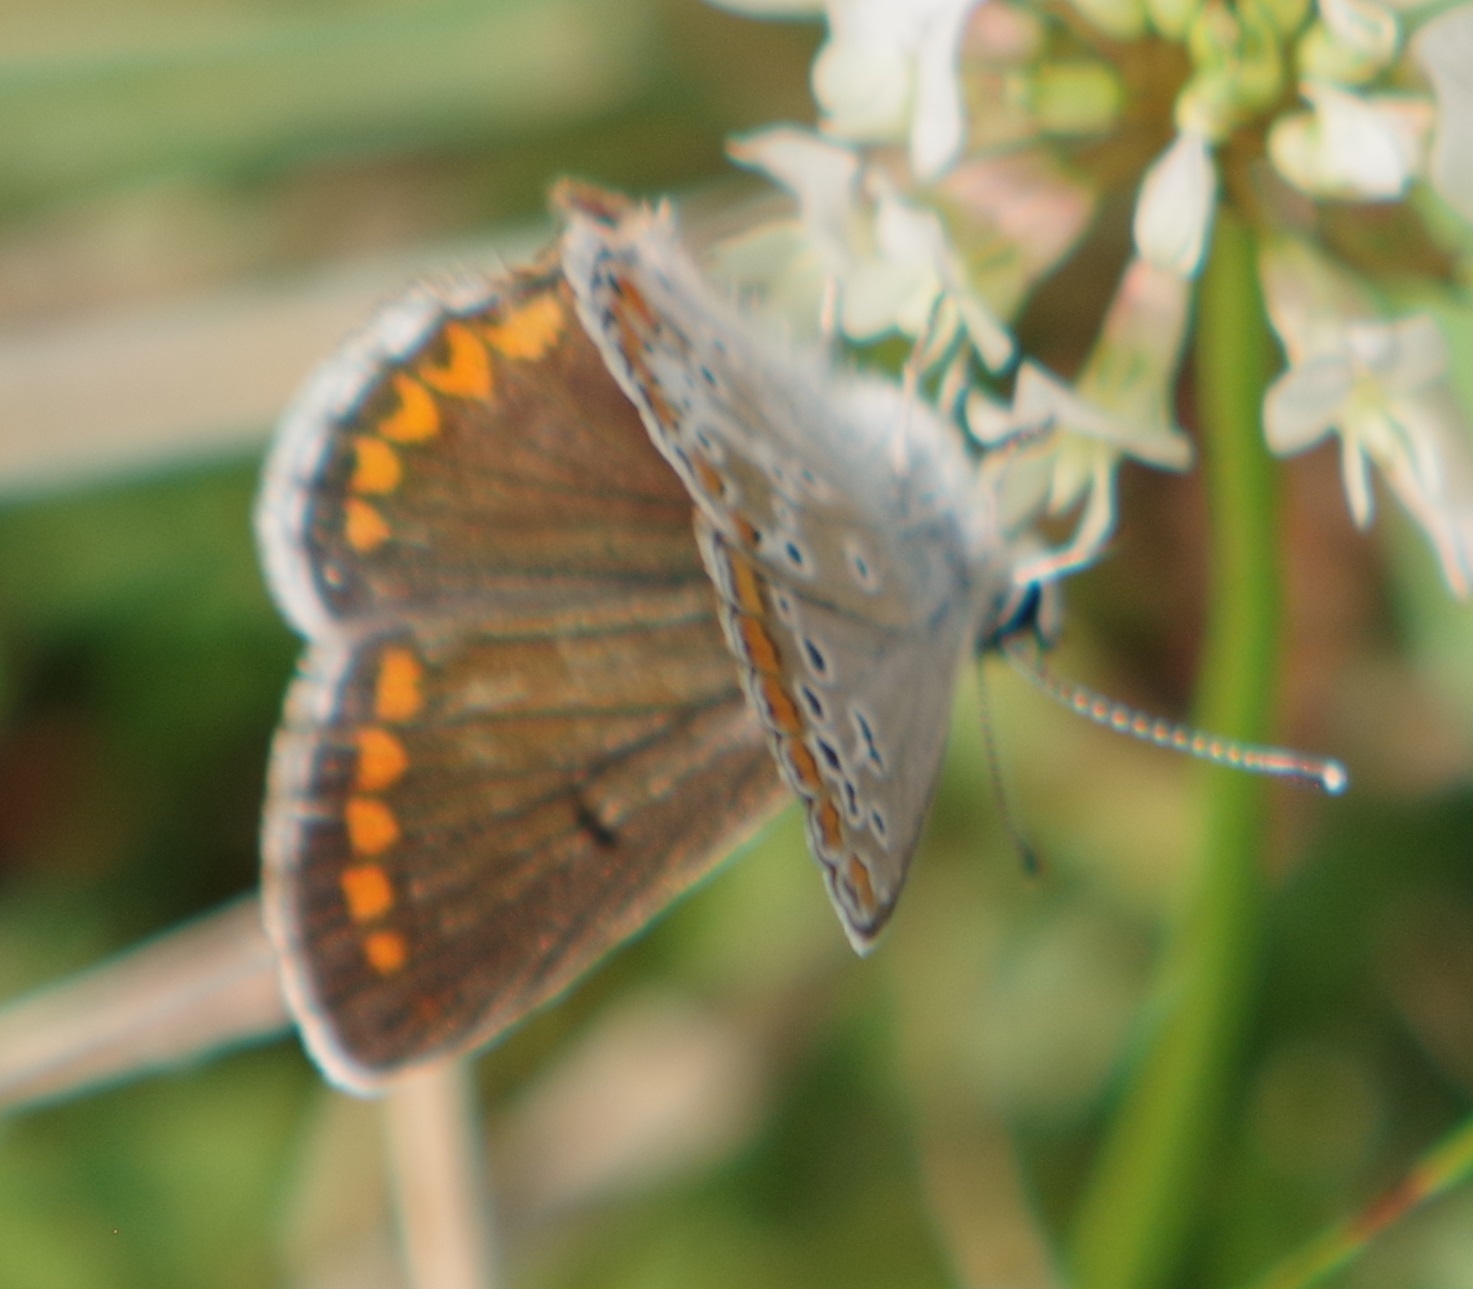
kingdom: Animalia
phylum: Arthropoda
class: Insecta
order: Lepidoptera
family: Lycaenidae
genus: Aricia
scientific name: Aricia agestis
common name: Brown argus
